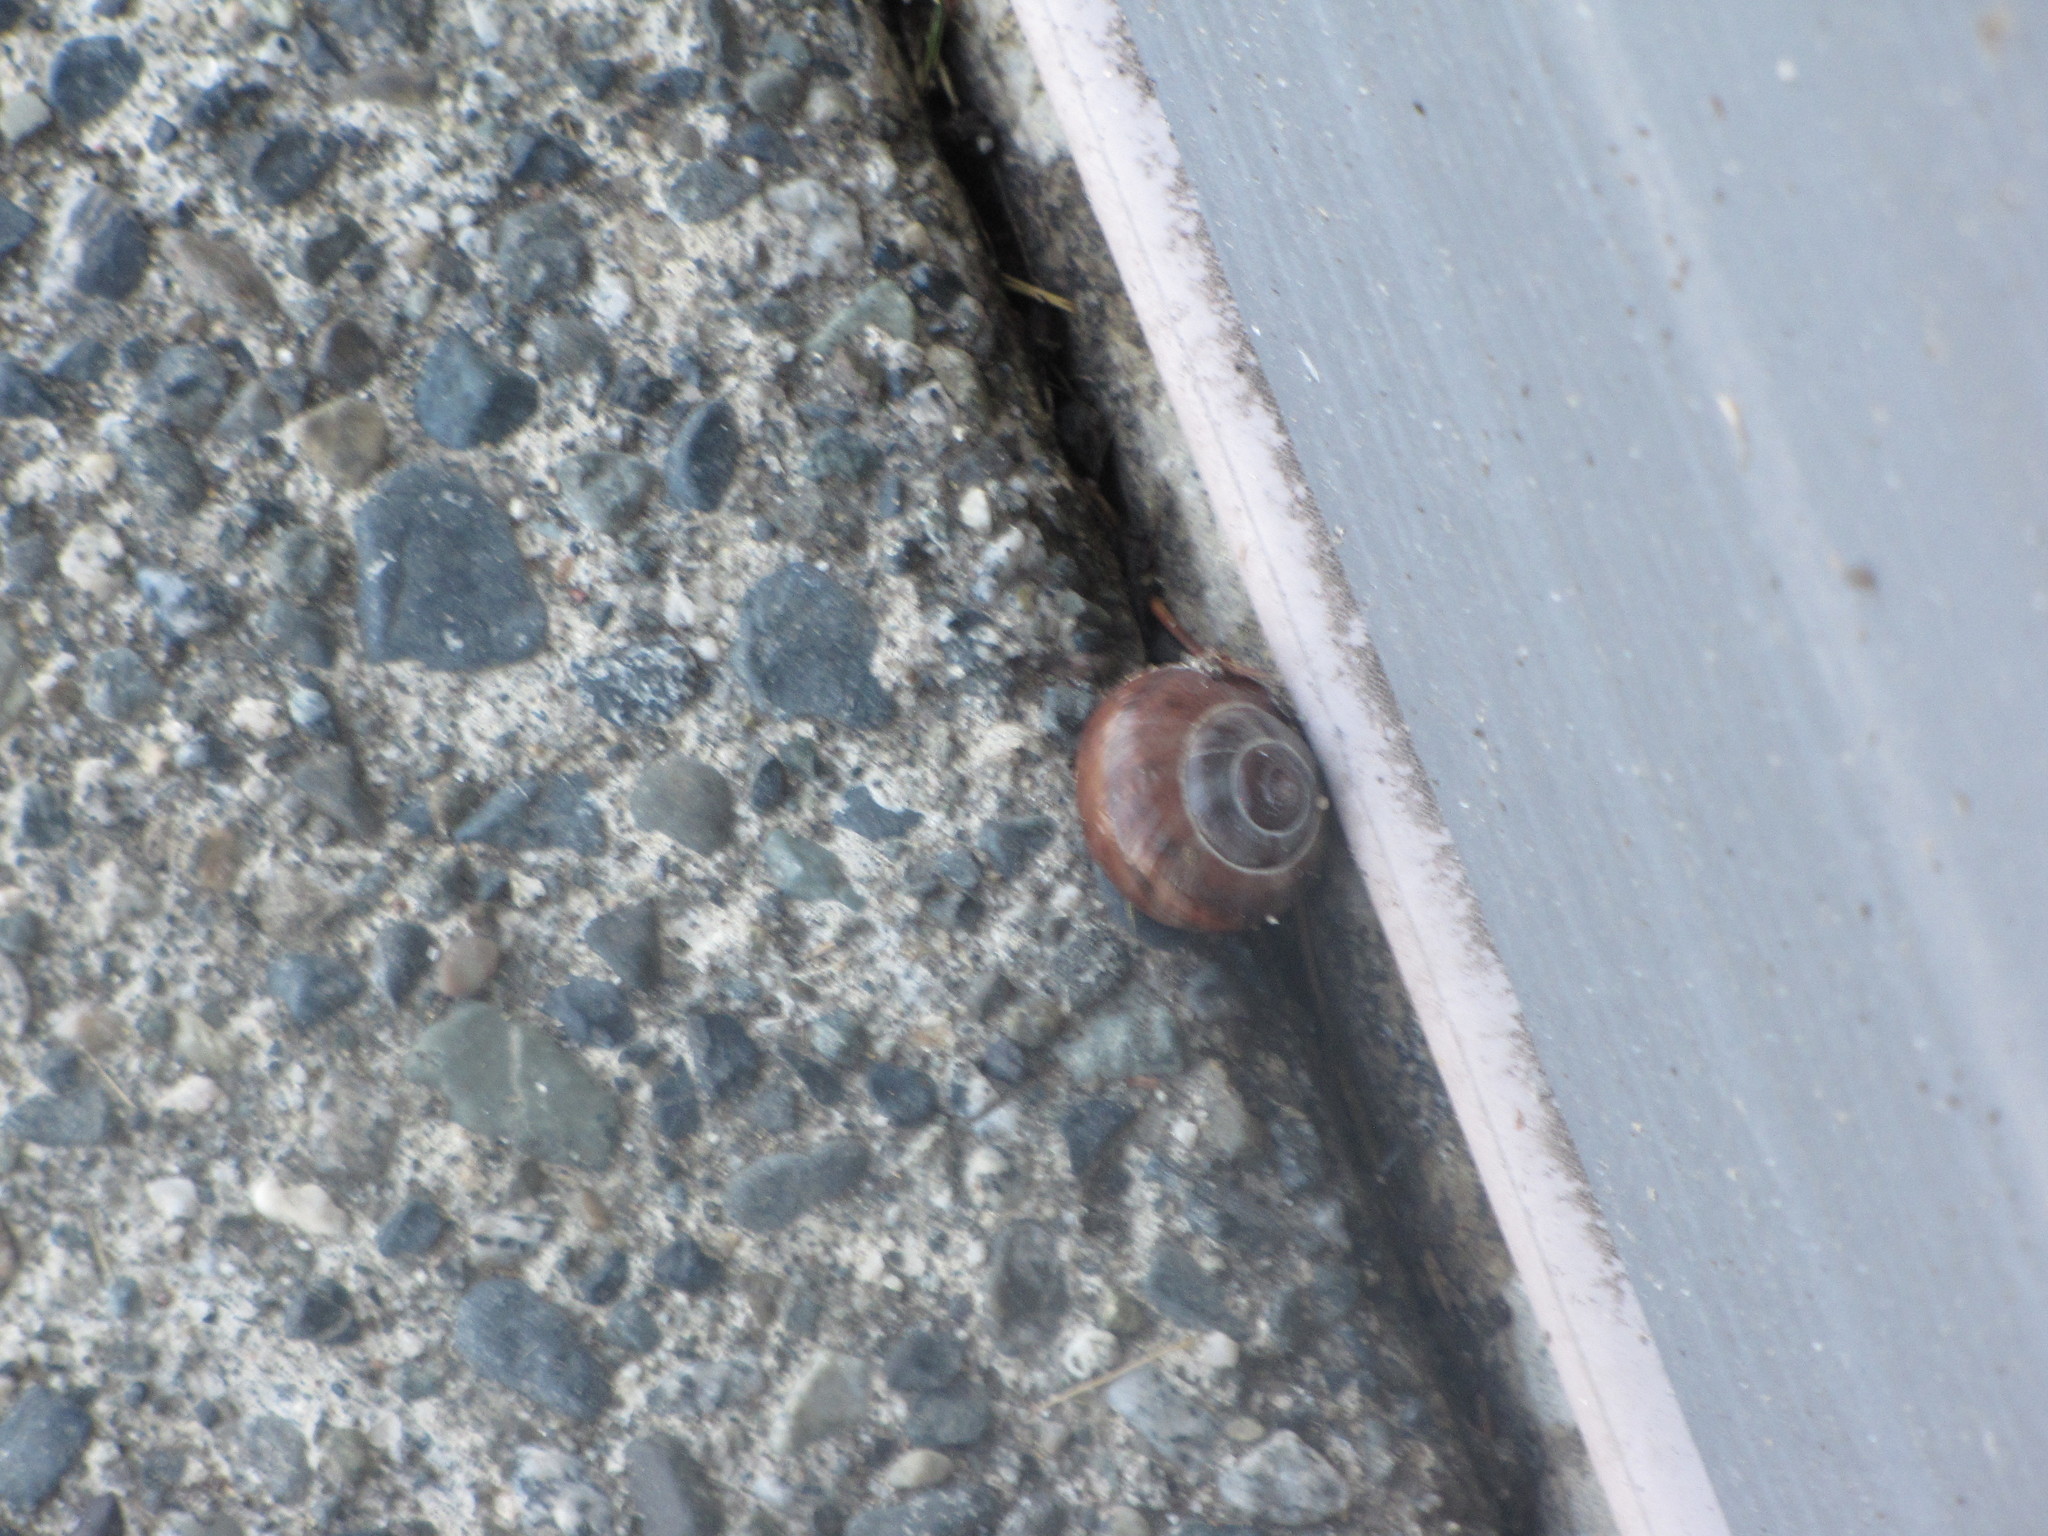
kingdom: Animalia
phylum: Mollusca
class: Gastropoda
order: Stylommatophora
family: Helicidae
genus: Cepaea
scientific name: Cepaea nemoralis
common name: Grovesnail
